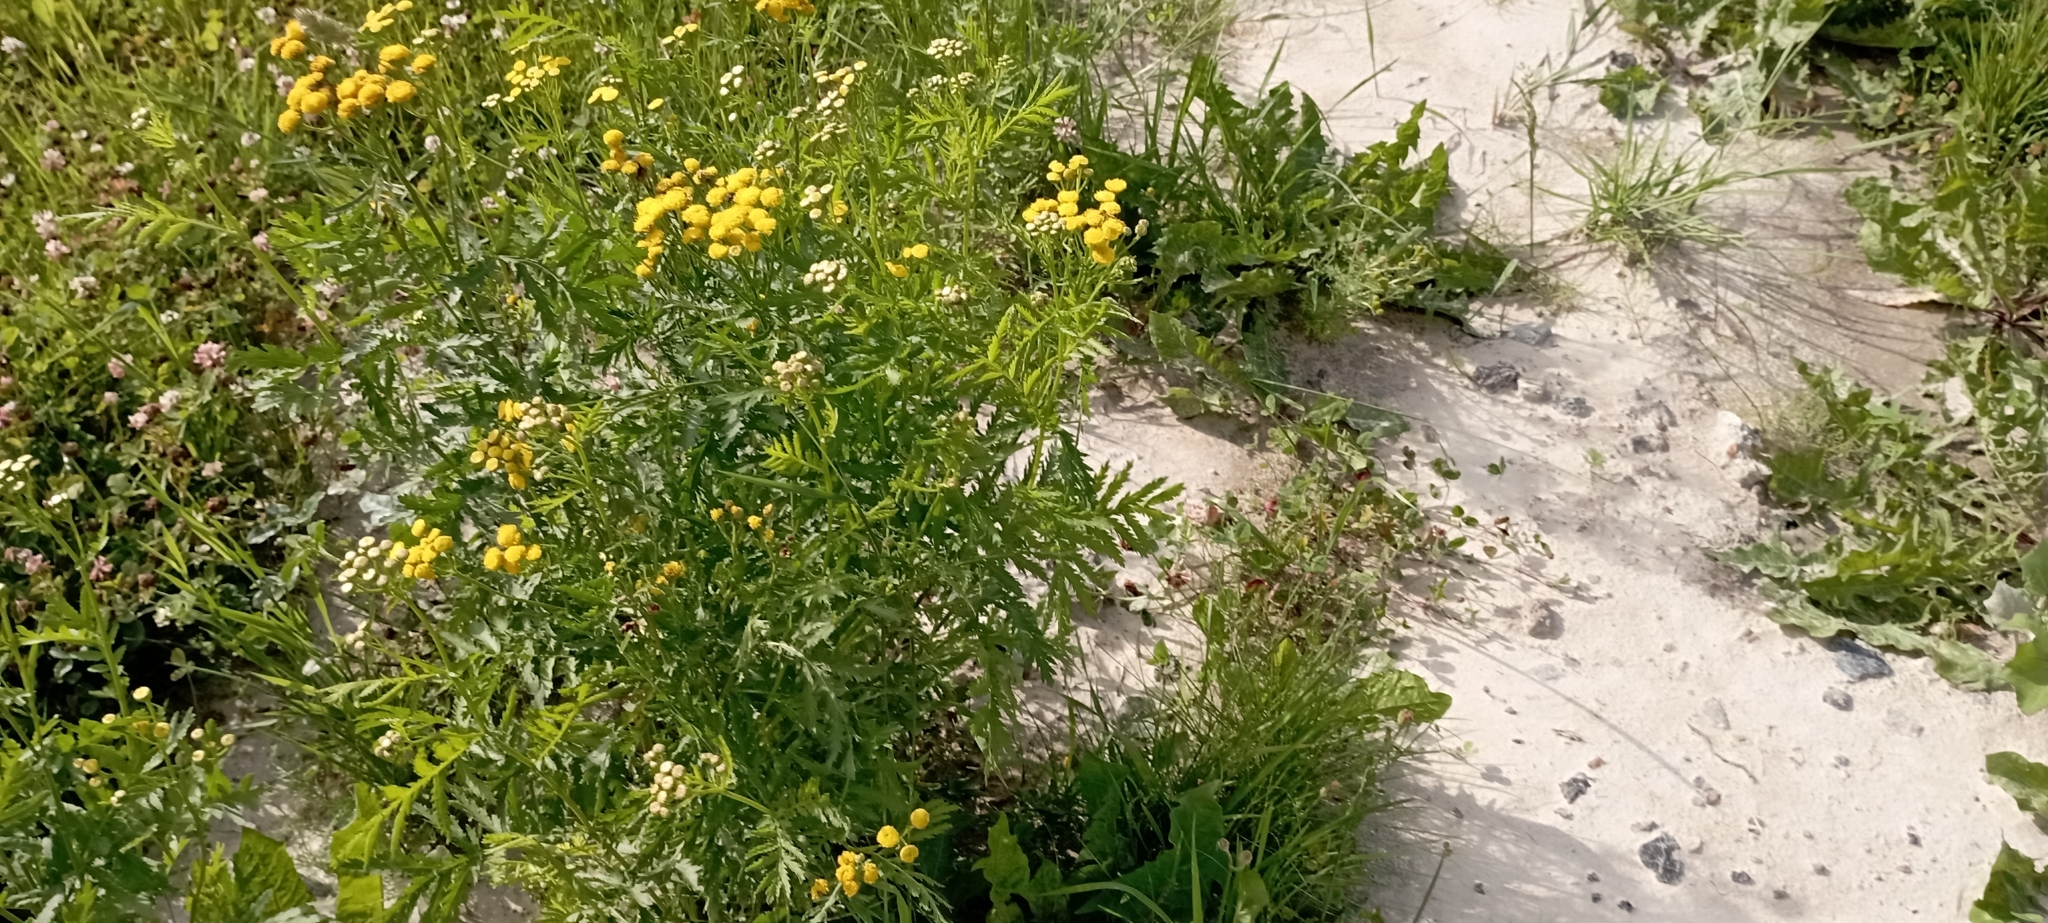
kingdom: Plantae
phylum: Tracheophyta
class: Magnoliopsida
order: Asterales
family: Asteraceae
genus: Tanacetum
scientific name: Tanacetum vulgare
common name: Common tansy
